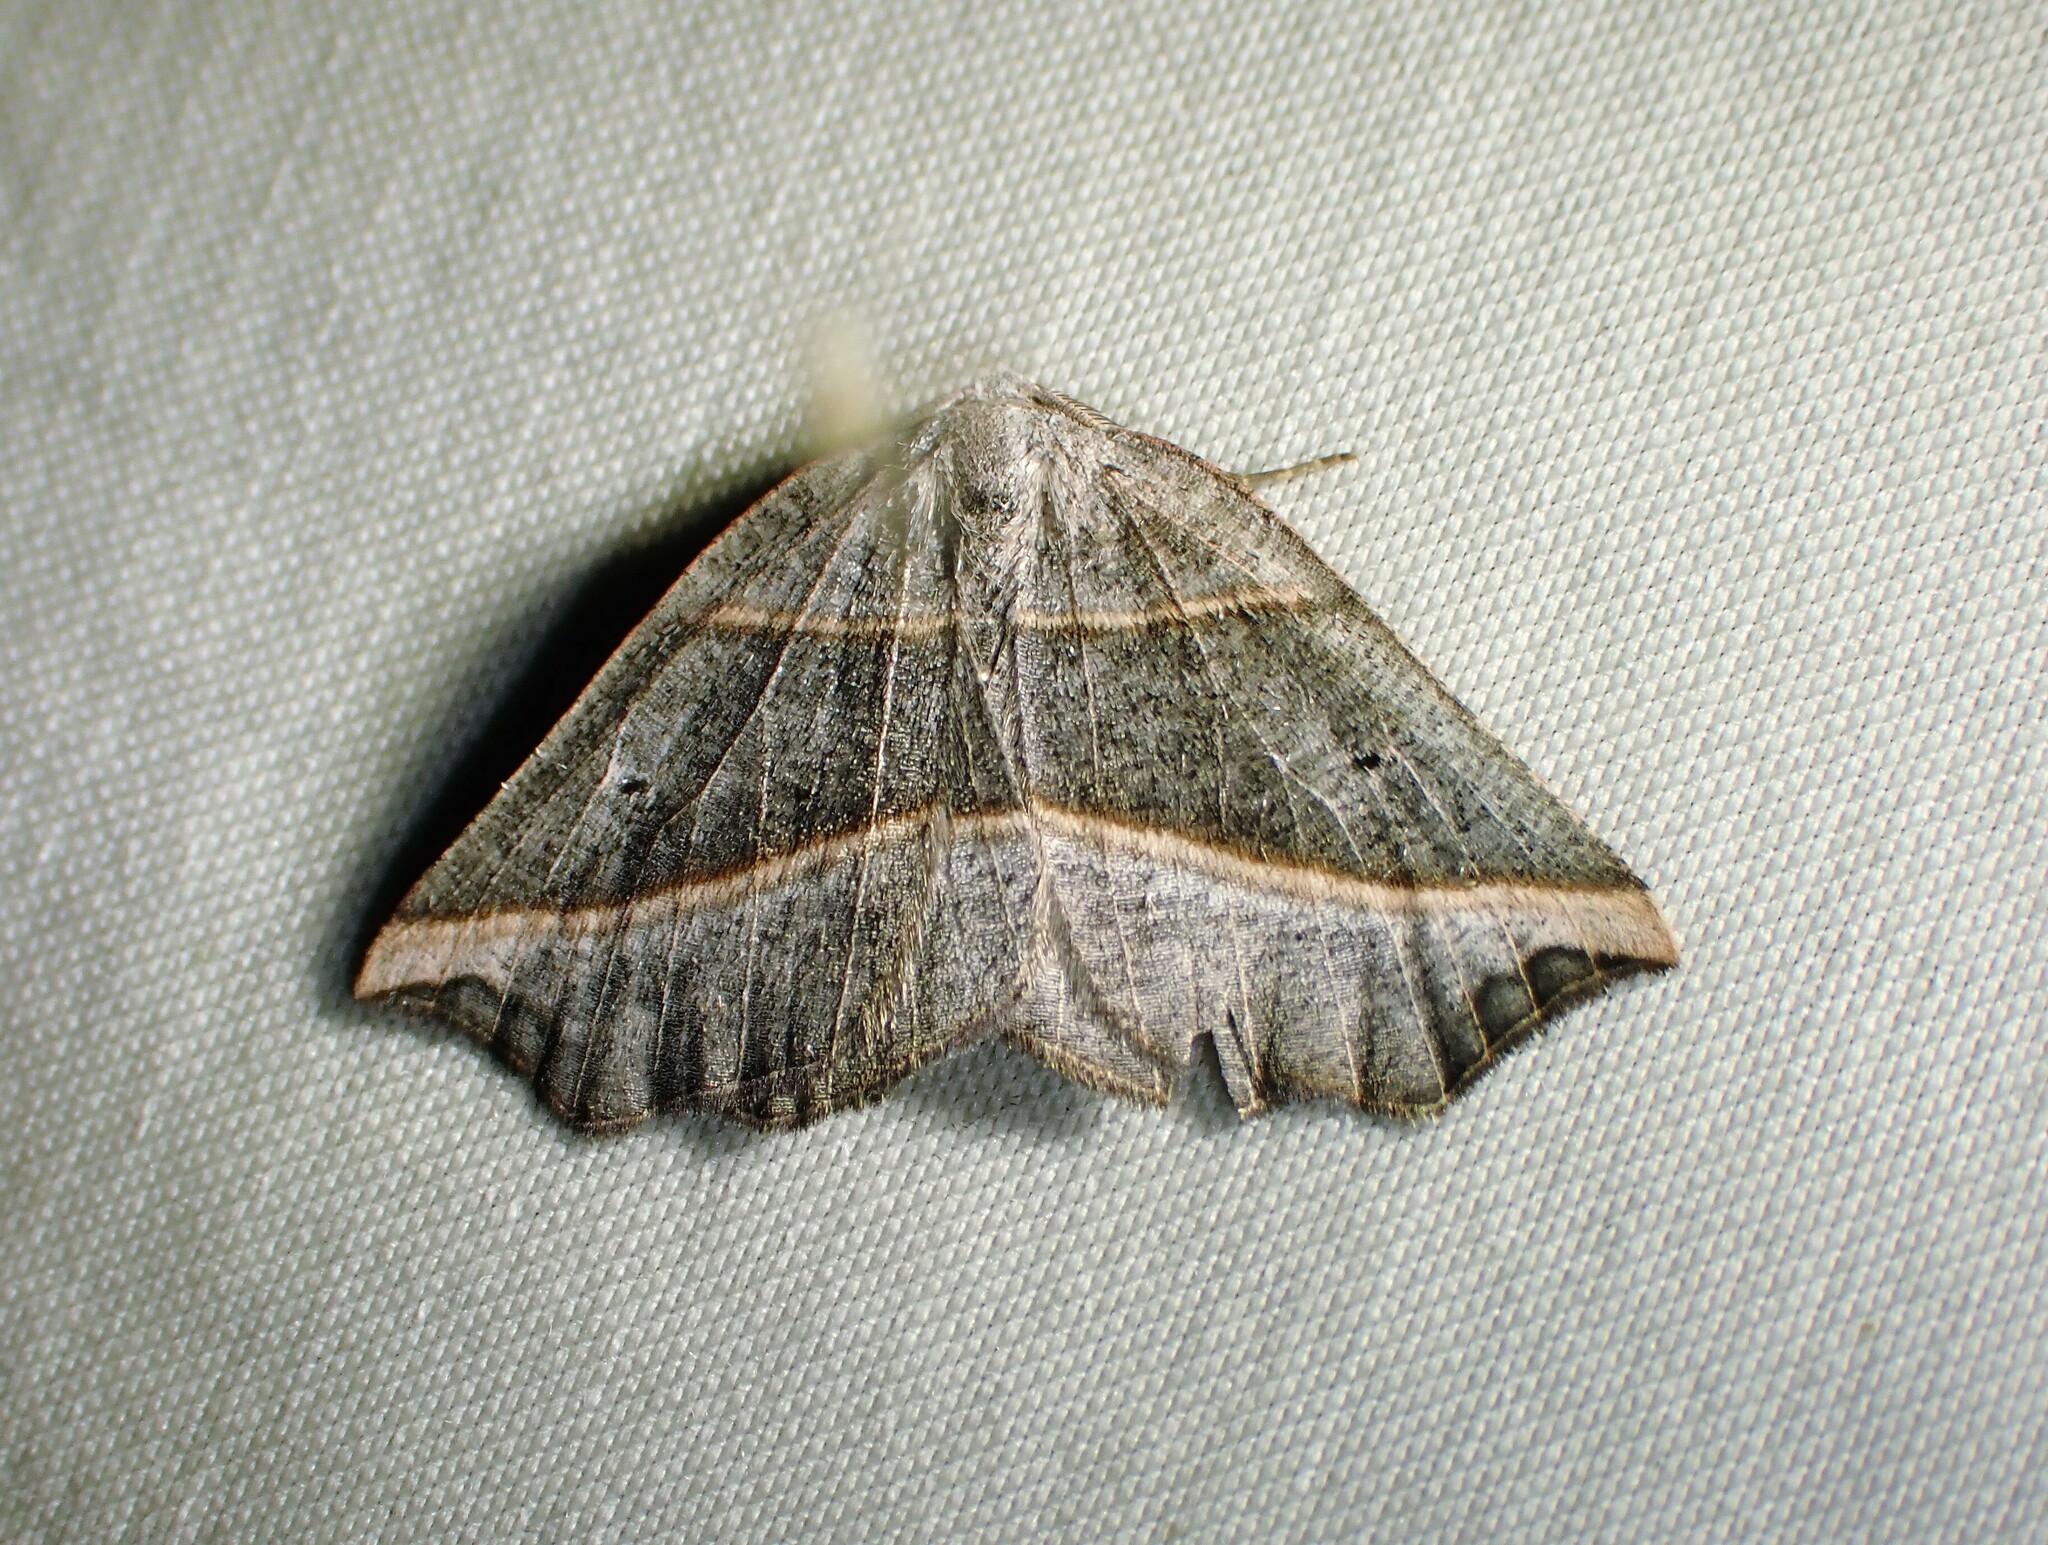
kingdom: Animalia
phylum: Arthropoda
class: Insecta
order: Lepidoptera
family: Geometridae
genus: Metanema
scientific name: Metanema determinata
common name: Dark metanema
